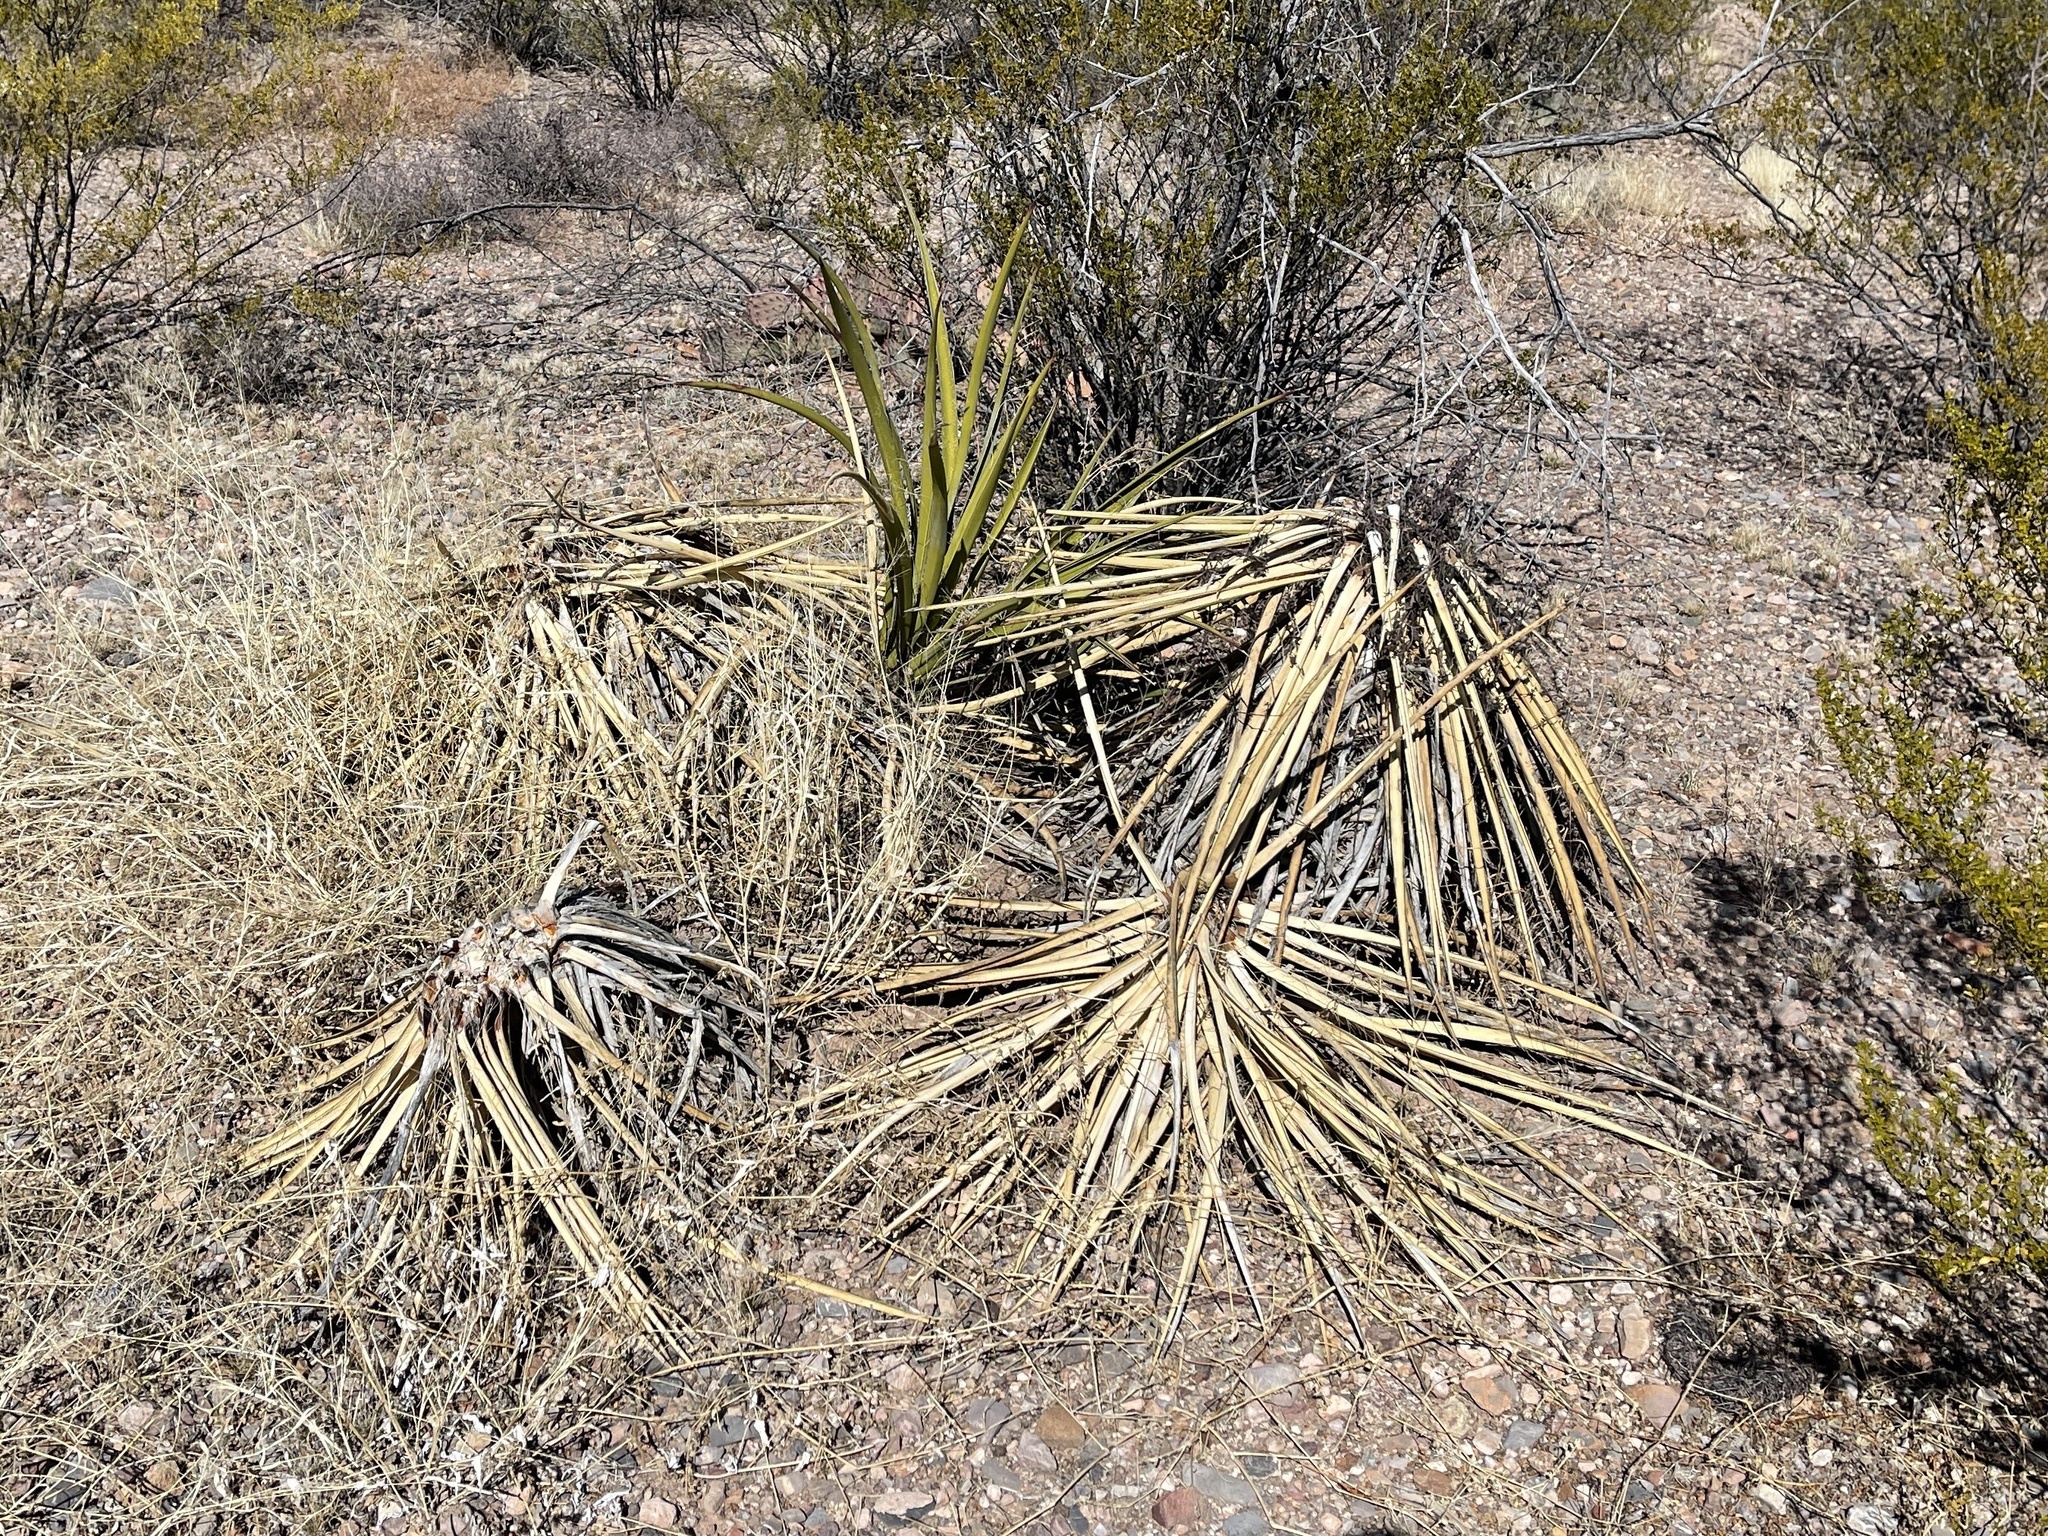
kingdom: Plantae
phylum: Tracheophyta
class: Liliopsida
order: Asparagales
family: Asparagaceae
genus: Yucca
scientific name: Yucca baccata
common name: Banana yucca
